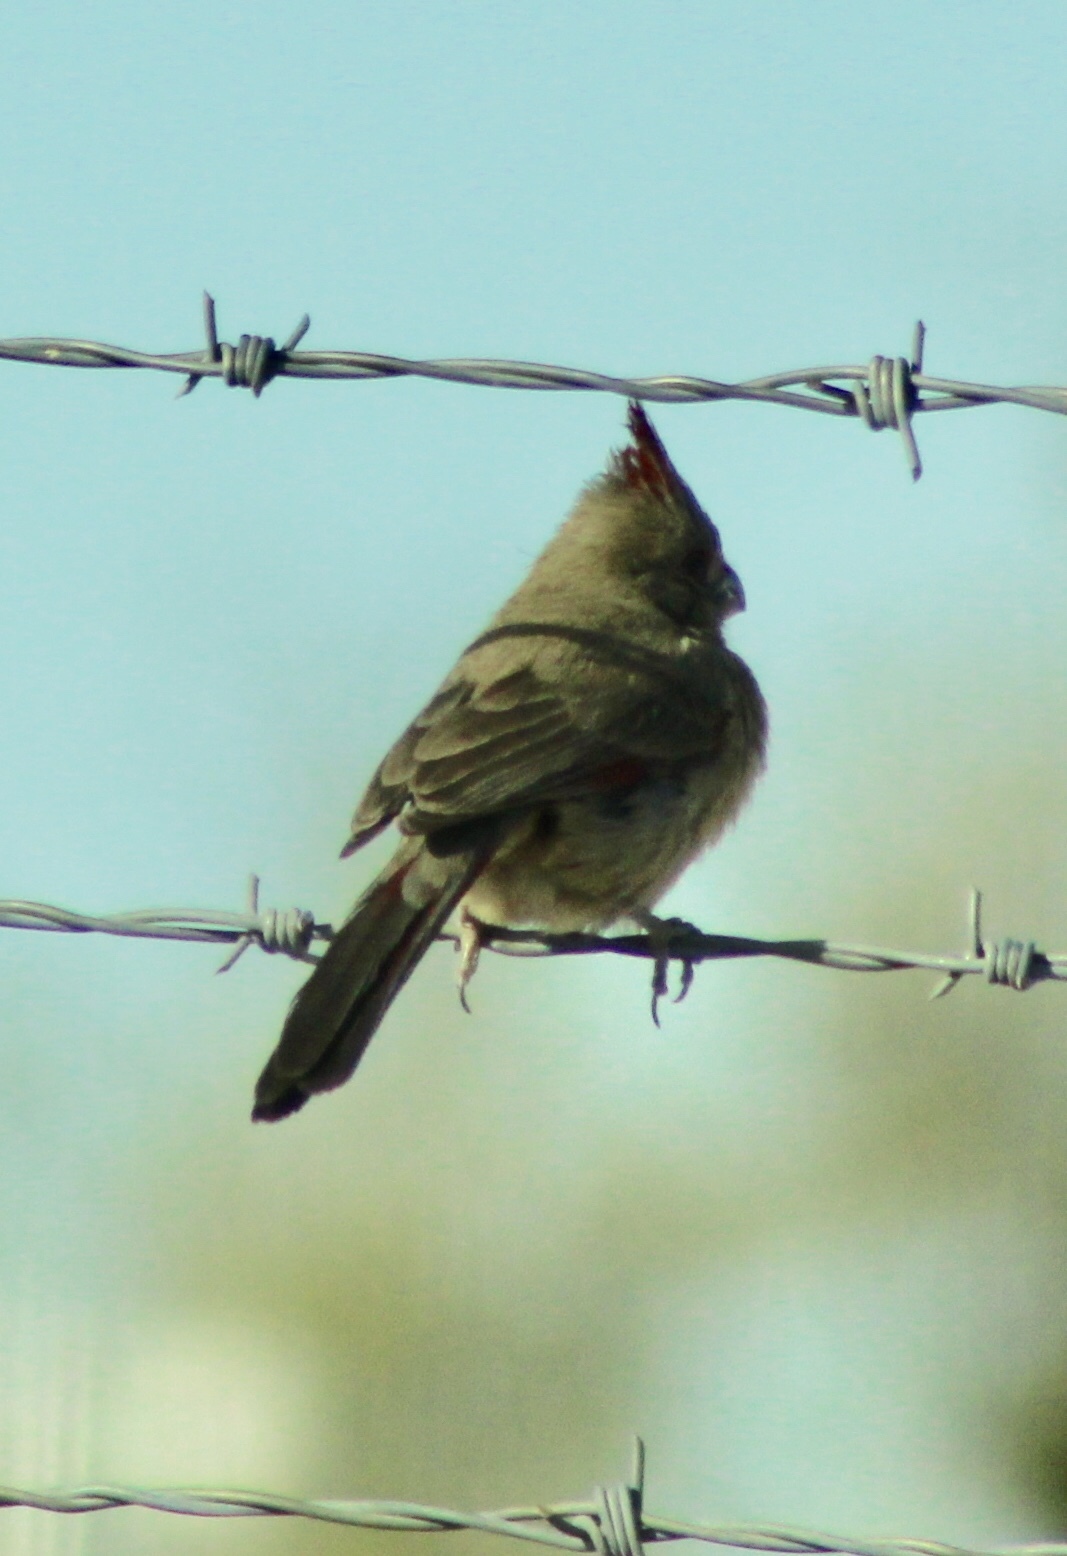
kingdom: Animalia
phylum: Chordata
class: Aves
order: Passeriformes
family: Cardinalidae
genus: Cardinalis
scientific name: Cardinalis sinuatus
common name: Pyrrhuloxia
